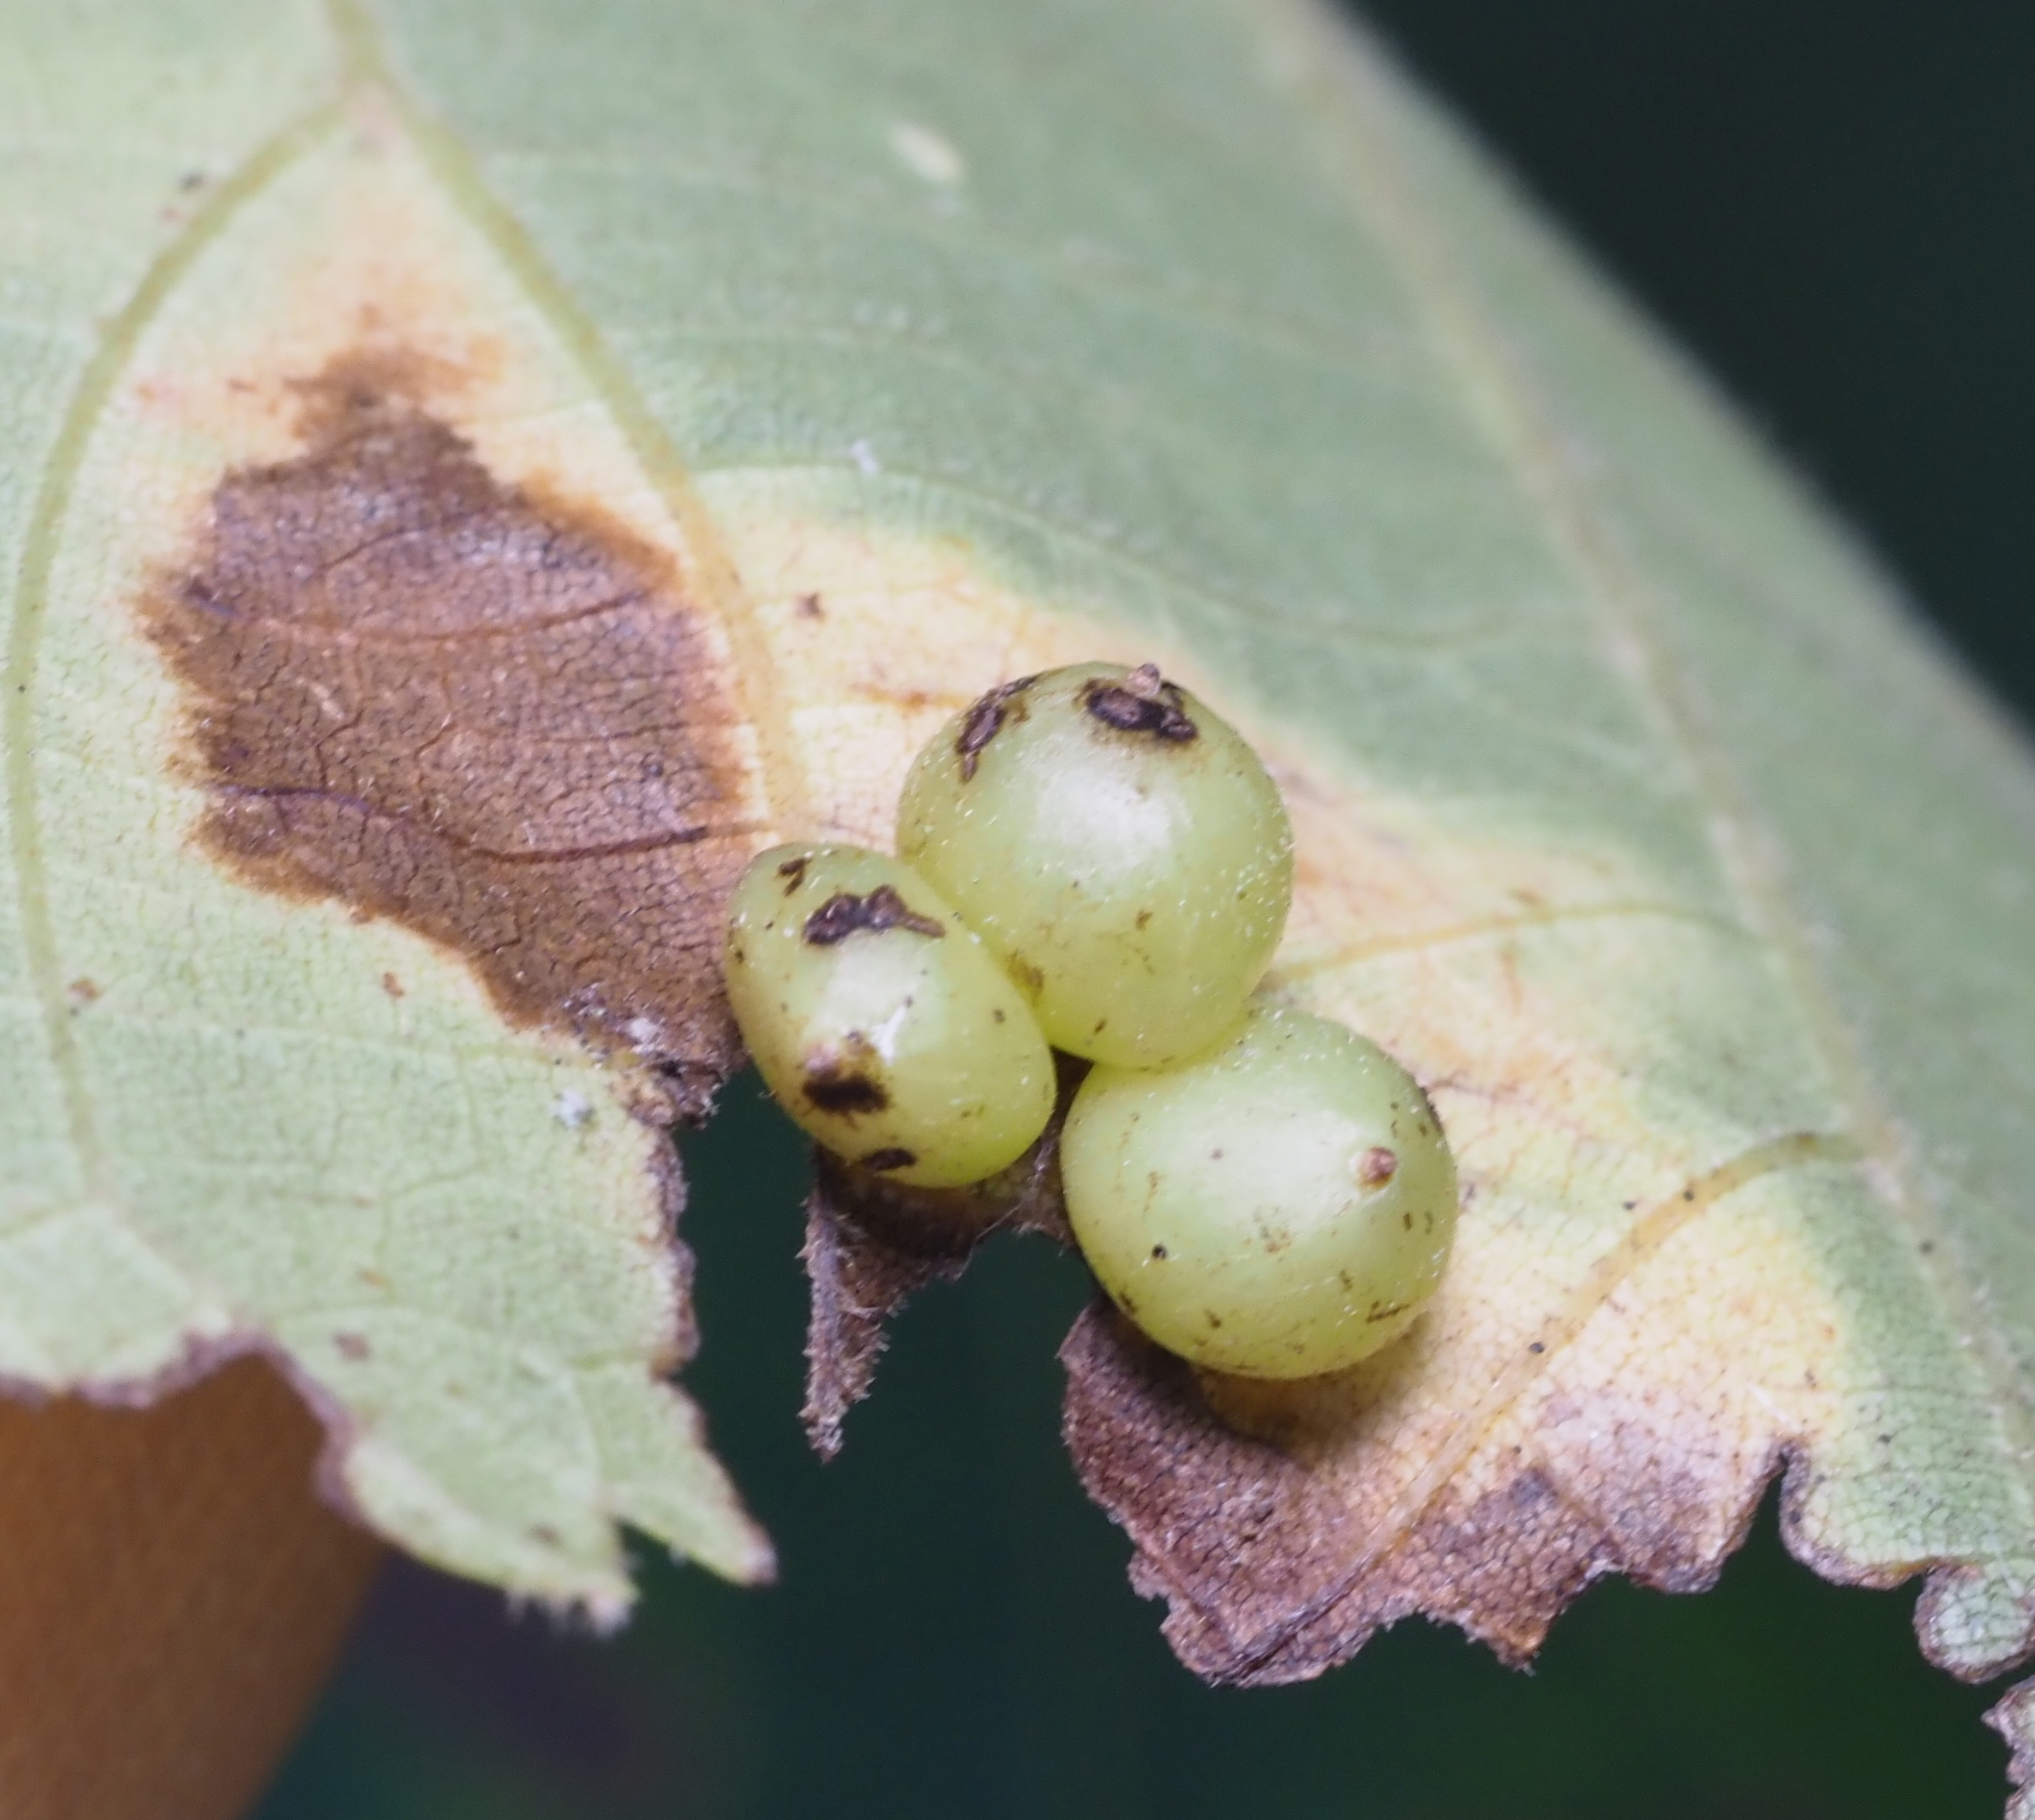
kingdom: Animalia
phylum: Arthropoda
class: Insecta
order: Diptera
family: Cecidomyiidae
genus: Caryomyia
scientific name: Caryomyia deflexipili
